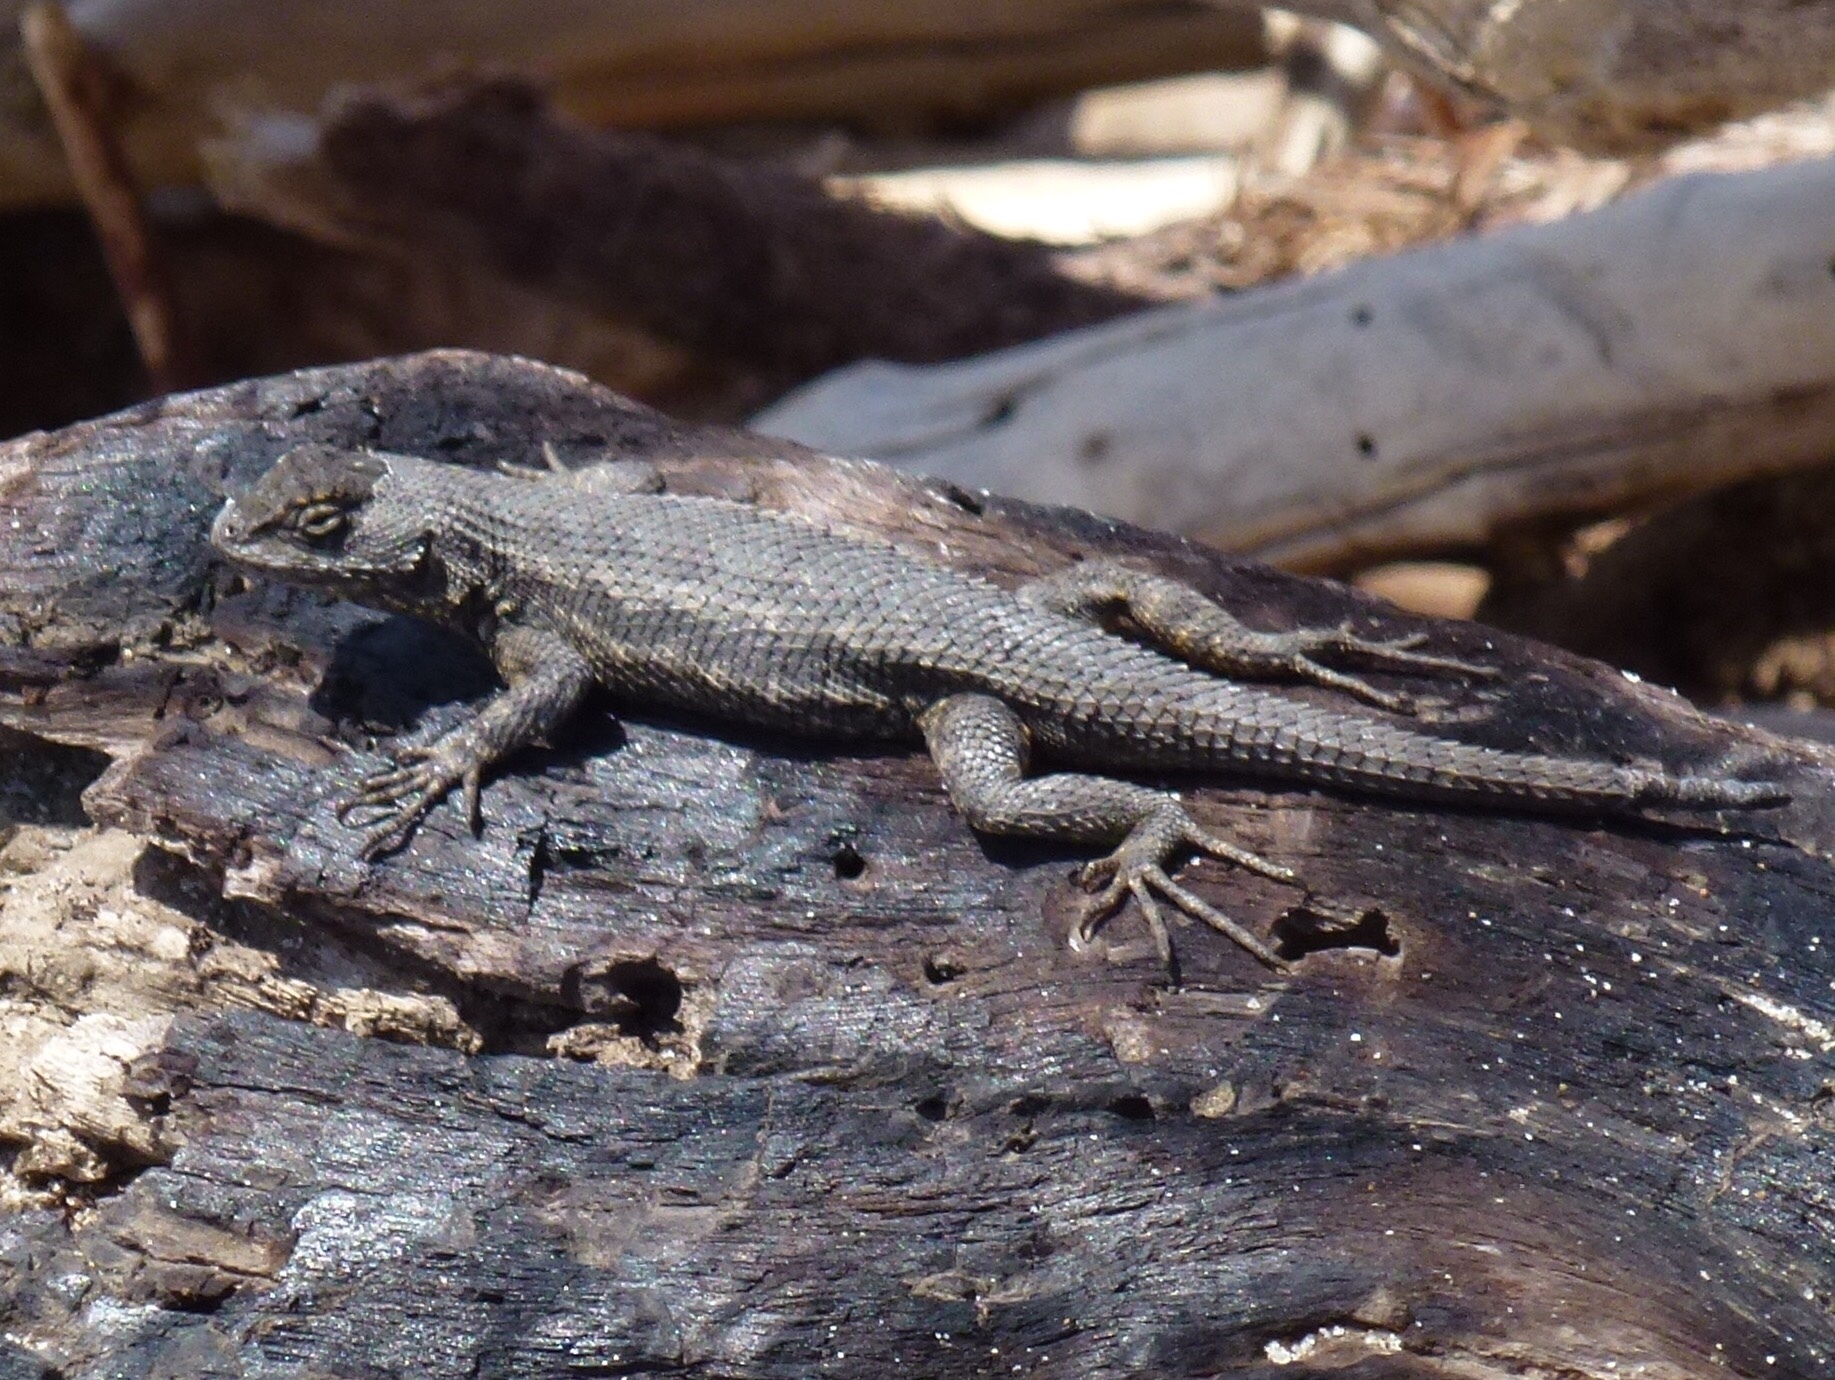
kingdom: Animalia
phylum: Chordata
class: Squamata
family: Phrynosomatidae
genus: Sceloporus
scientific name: Sceloporus occidentalis
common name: Western fence lizard
